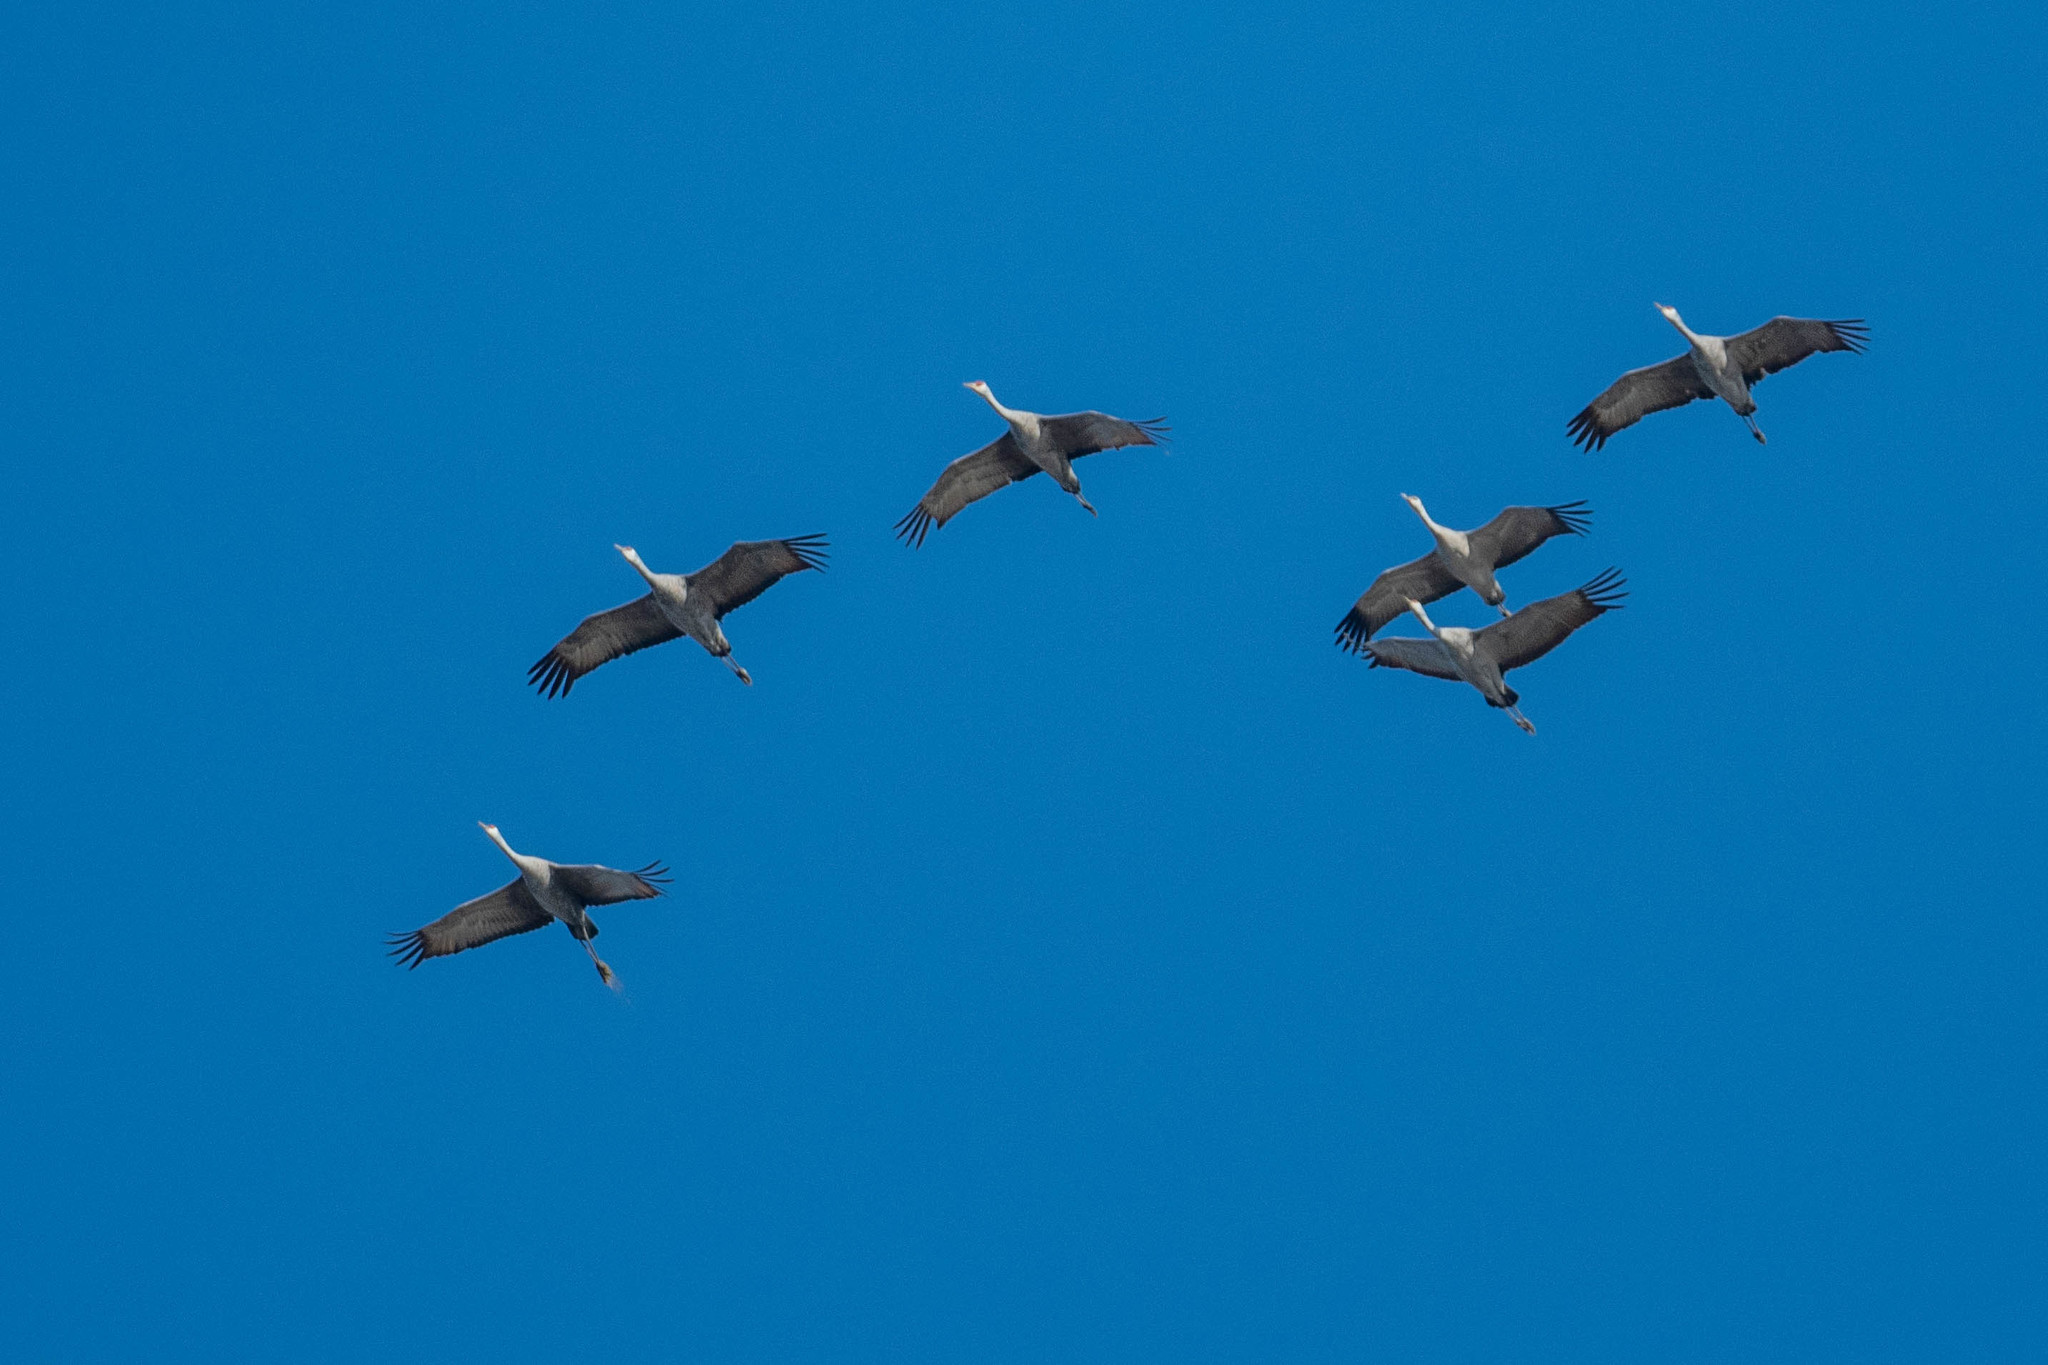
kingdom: Animalia
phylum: Chordata
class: Aves
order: Gruiformes
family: Gruidae
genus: Grus
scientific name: Grus canadensis
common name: Sandhill crane
